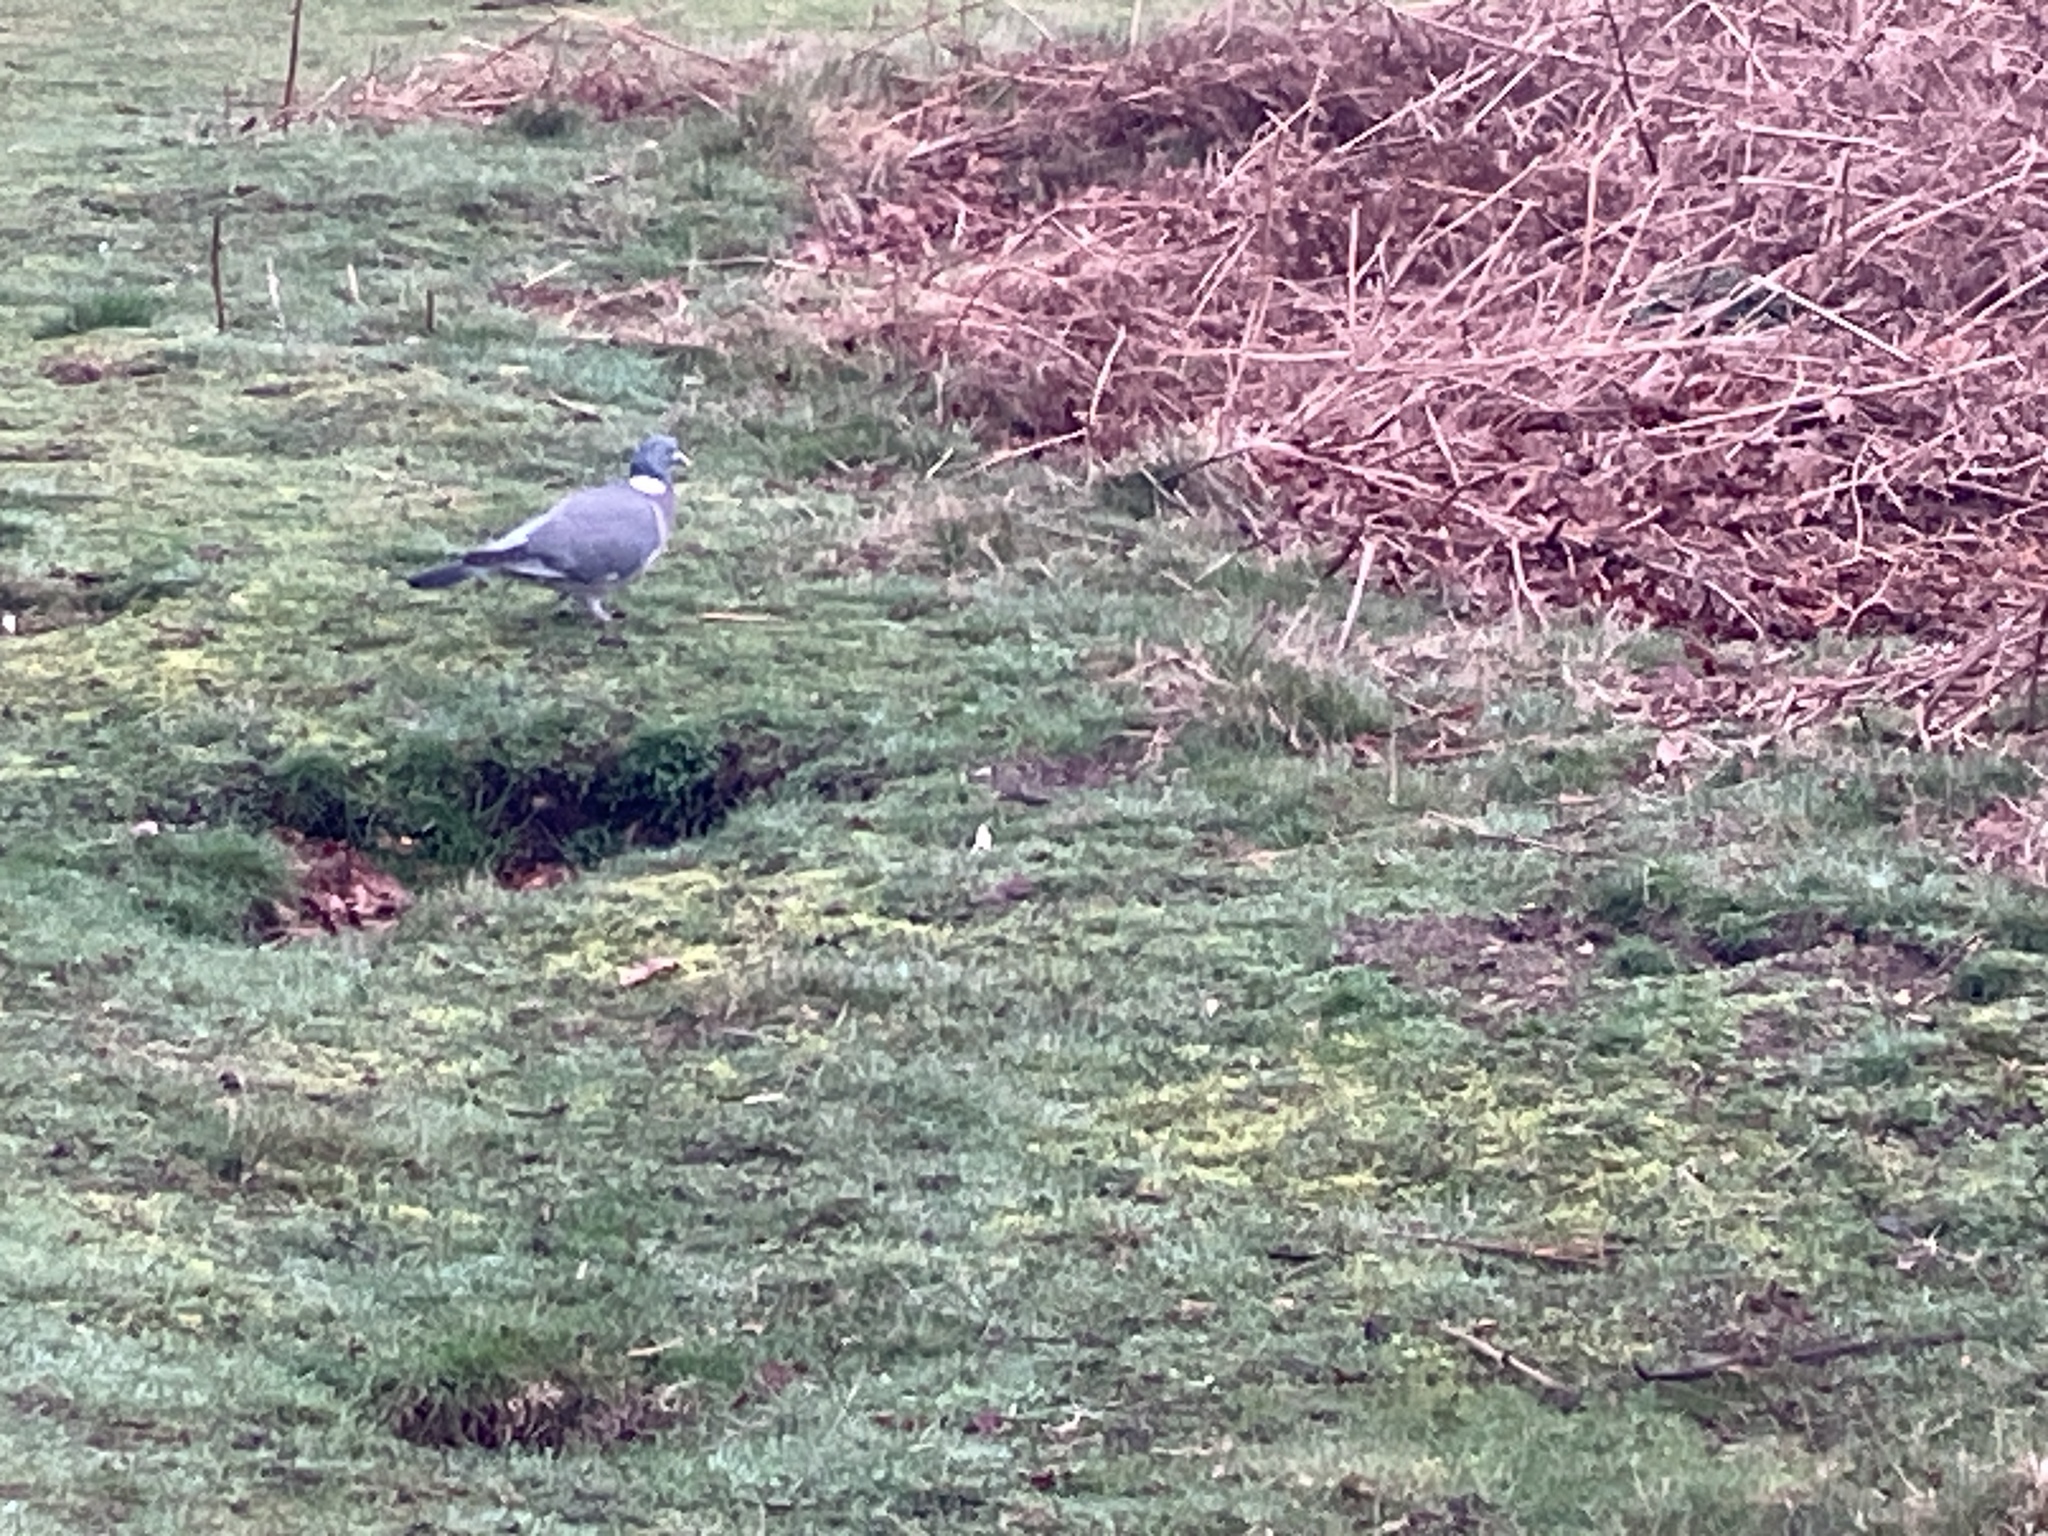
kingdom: Animalia
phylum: Chordata
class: Aves
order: Columbiformes
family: Columbidae
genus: Columba
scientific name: Columba palumbus
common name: Common wood pigeon
